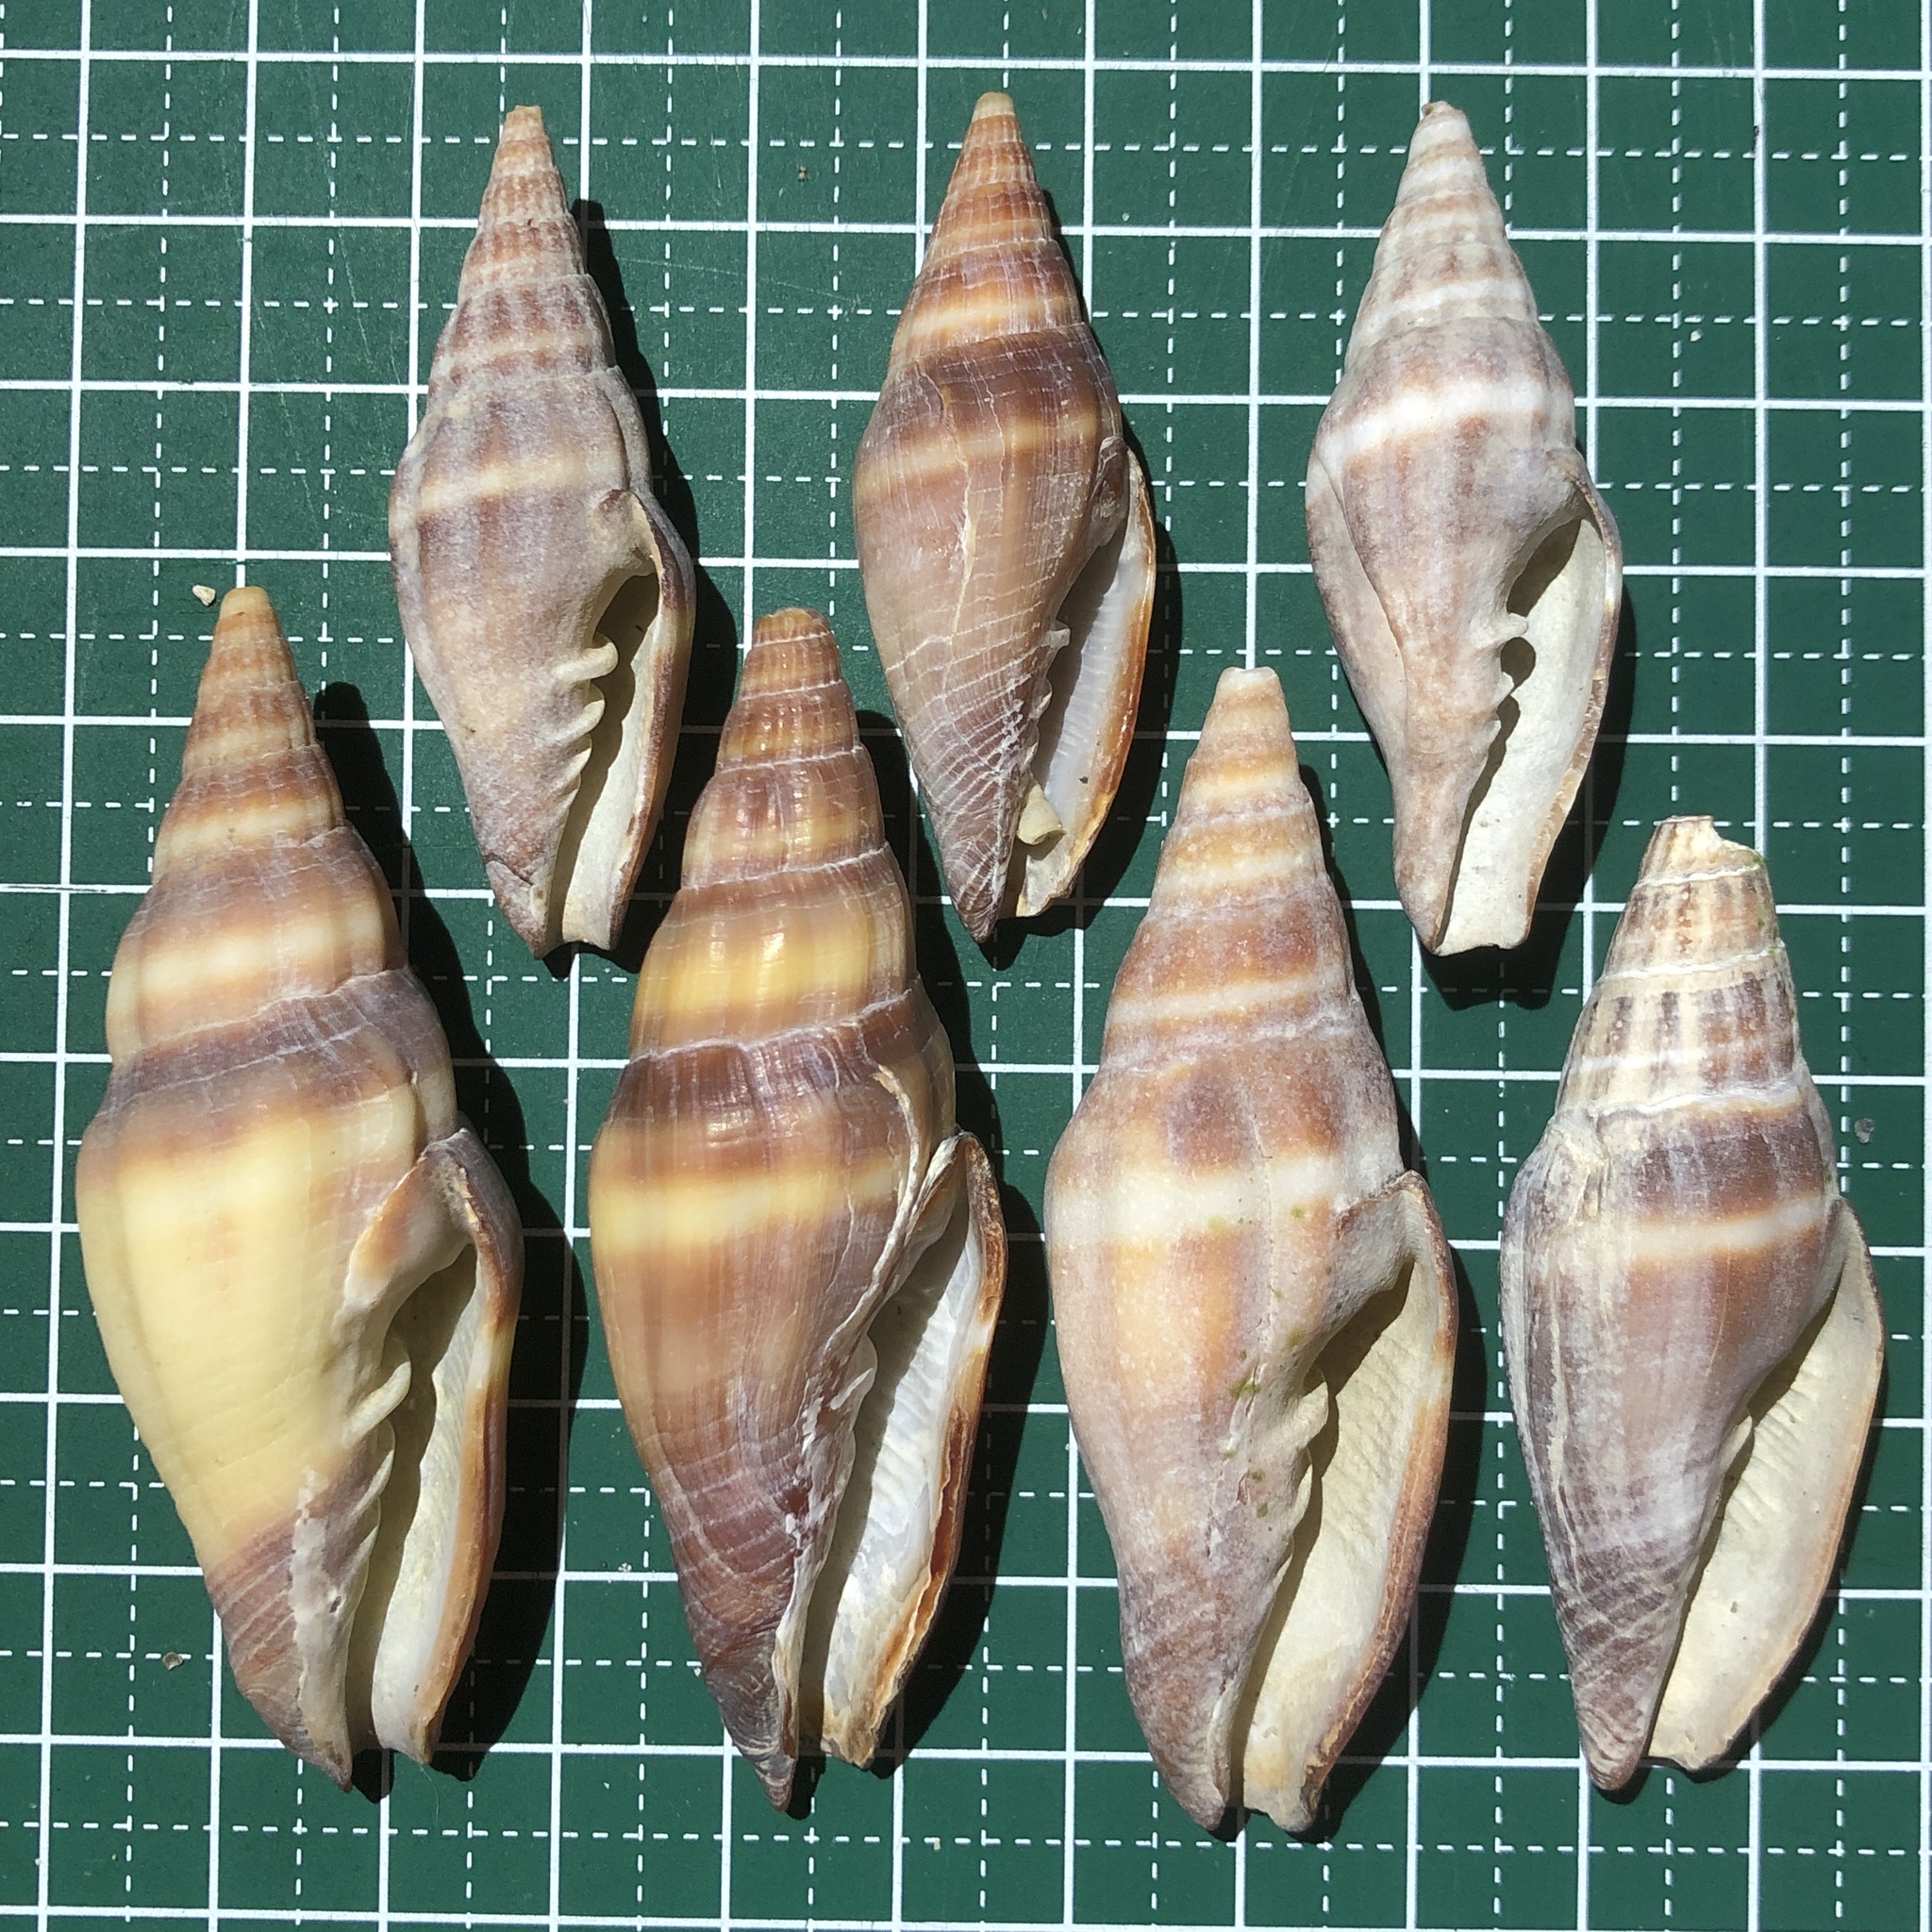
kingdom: Animalia
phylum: Mollusca
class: Gastropoda
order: Neogastropoda
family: Costellariidae
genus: Vexillum
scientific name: Vexillum vulpecula
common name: Little fox miter
